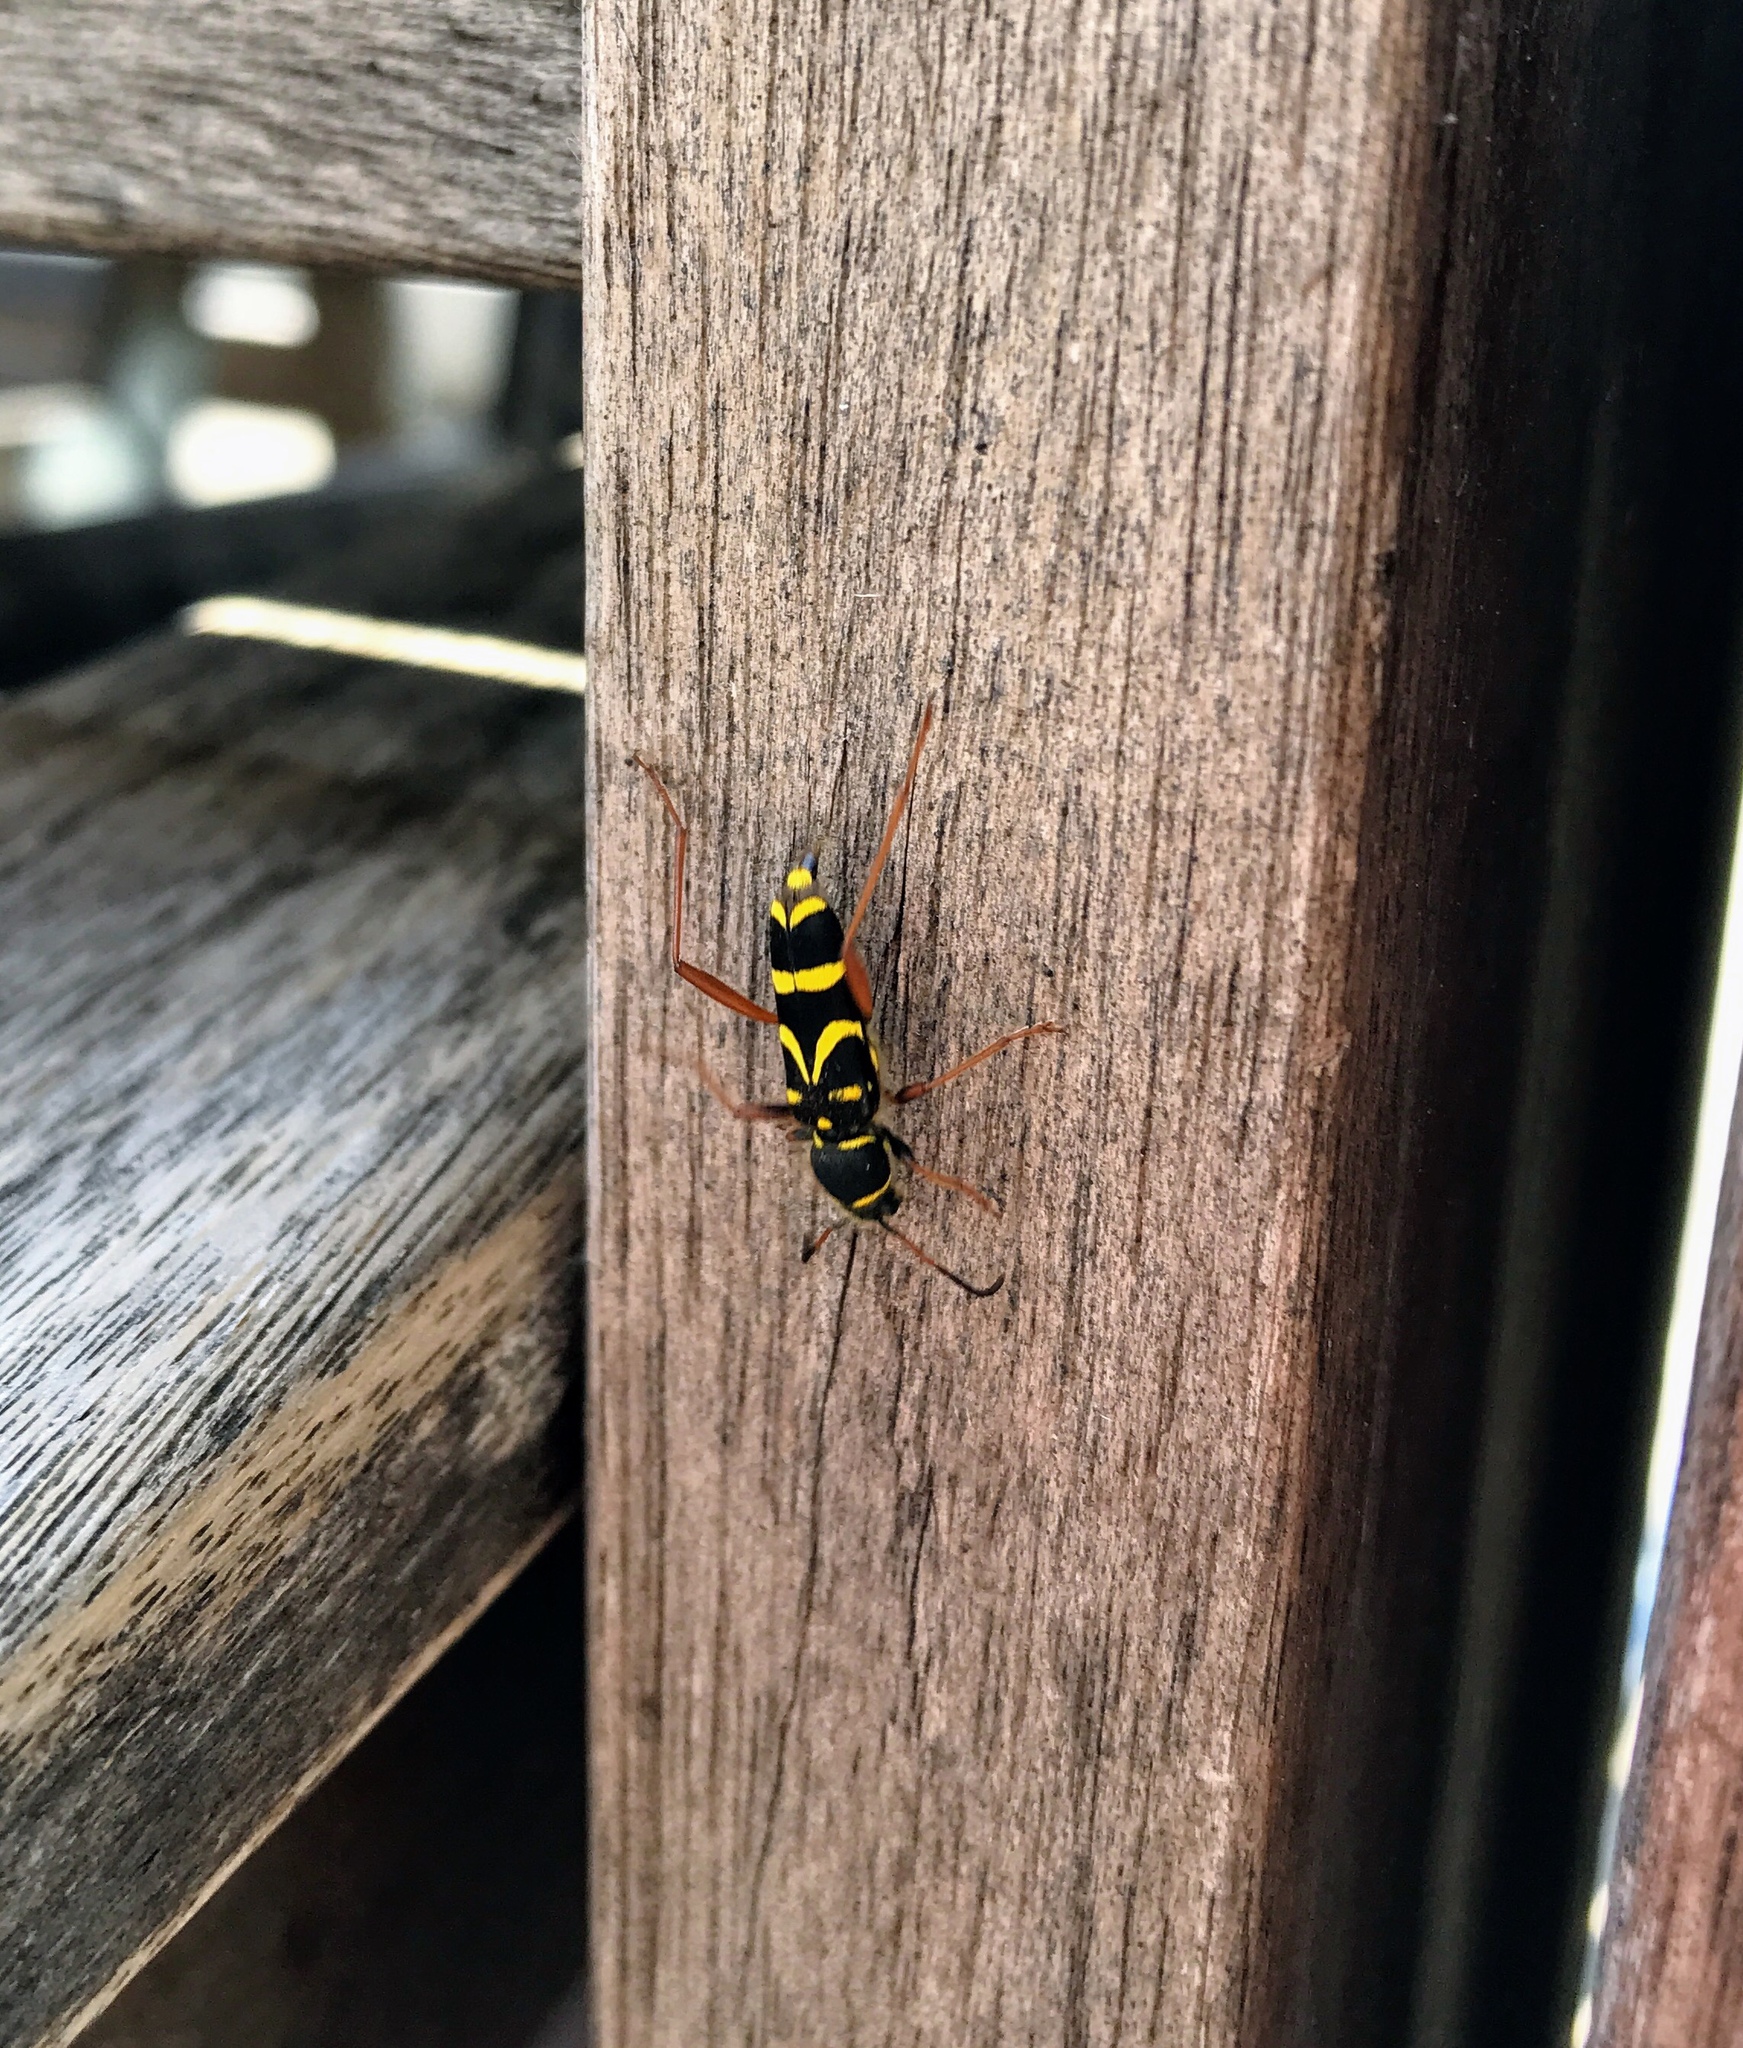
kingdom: Animalia
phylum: Arthropoda
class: Insecta
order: Coleoptera
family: Cerambycidae
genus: Clytus
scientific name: Clytus arietis
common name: Wasp beetle
